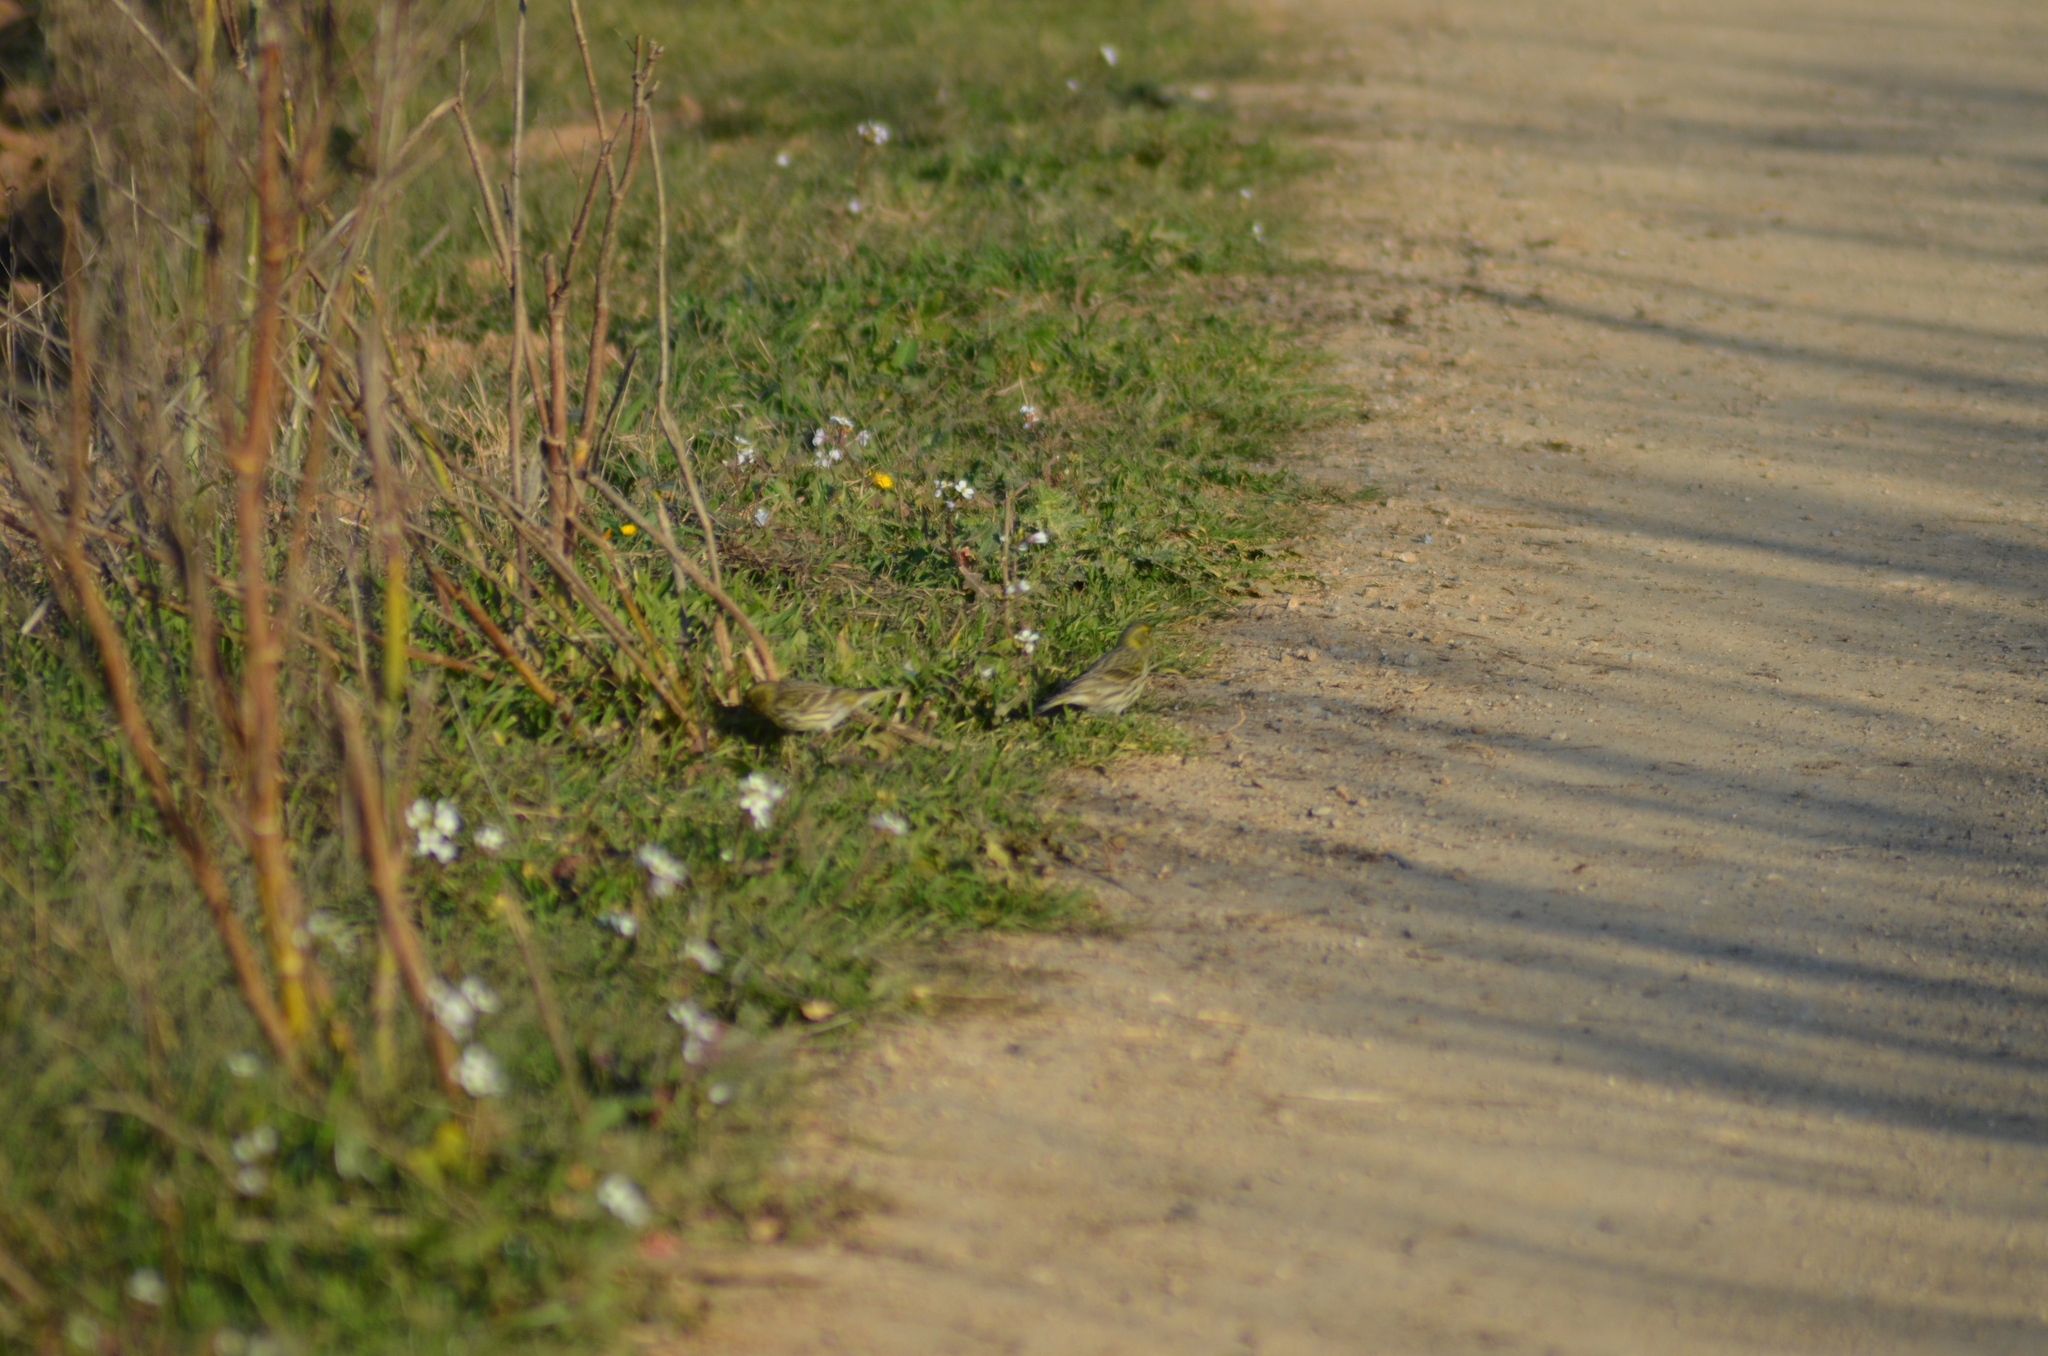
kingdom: Animalia
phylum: Chordata
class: Aves
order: Passeriformes
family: Fringillidae
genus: Serinus
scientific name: Serinus serinus
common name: European serin
